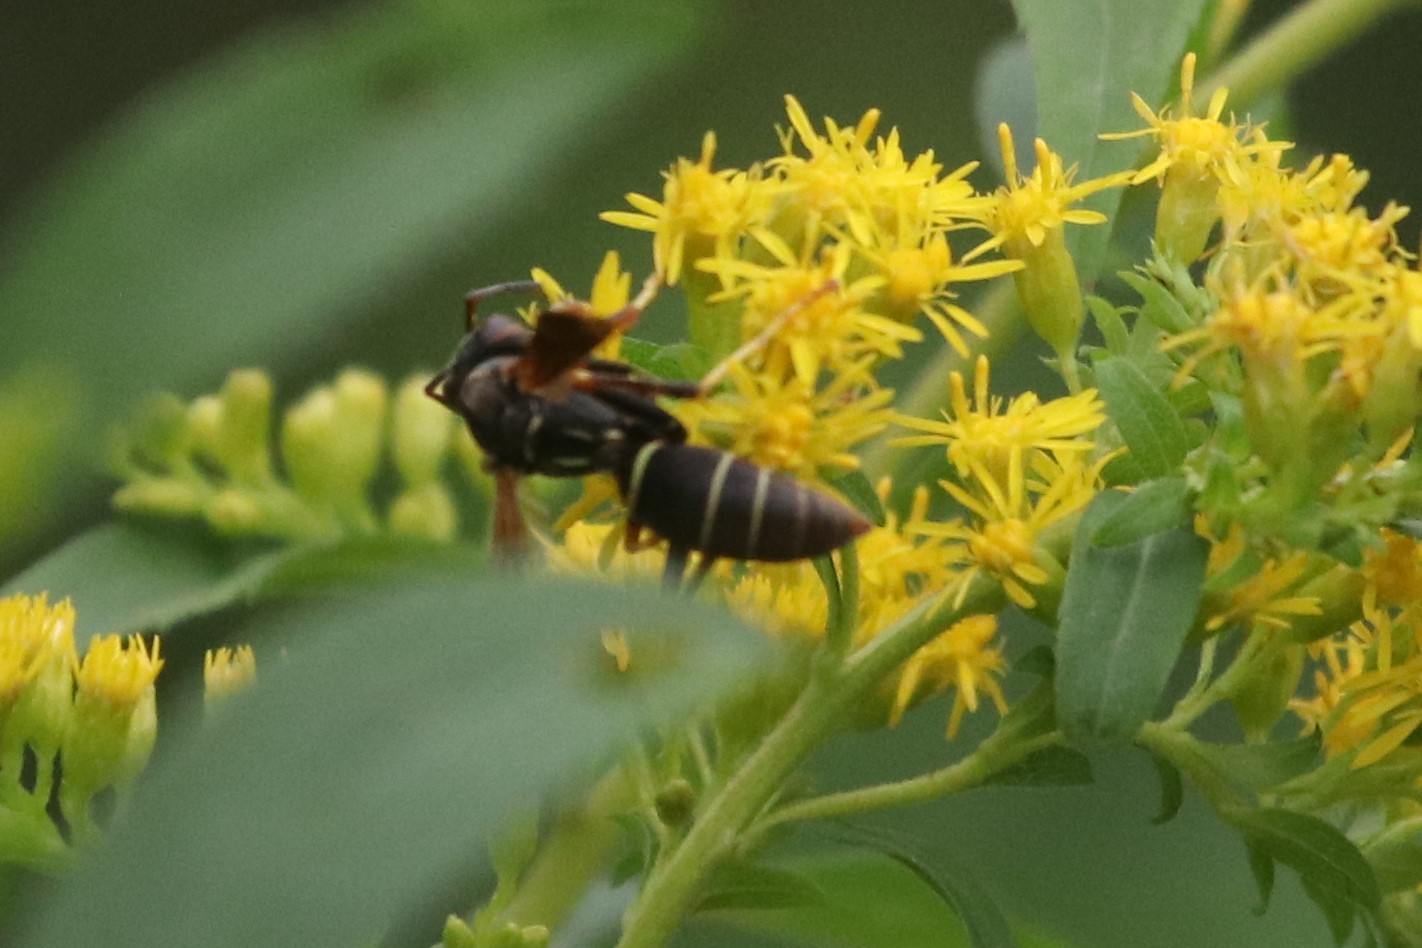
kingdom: Animalia
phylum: Arthropoda
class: Insecta
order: Hymenoptera
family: Eumenidae
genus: Polistes
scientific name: Polistes fuscatus
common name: Dark paper wasp
